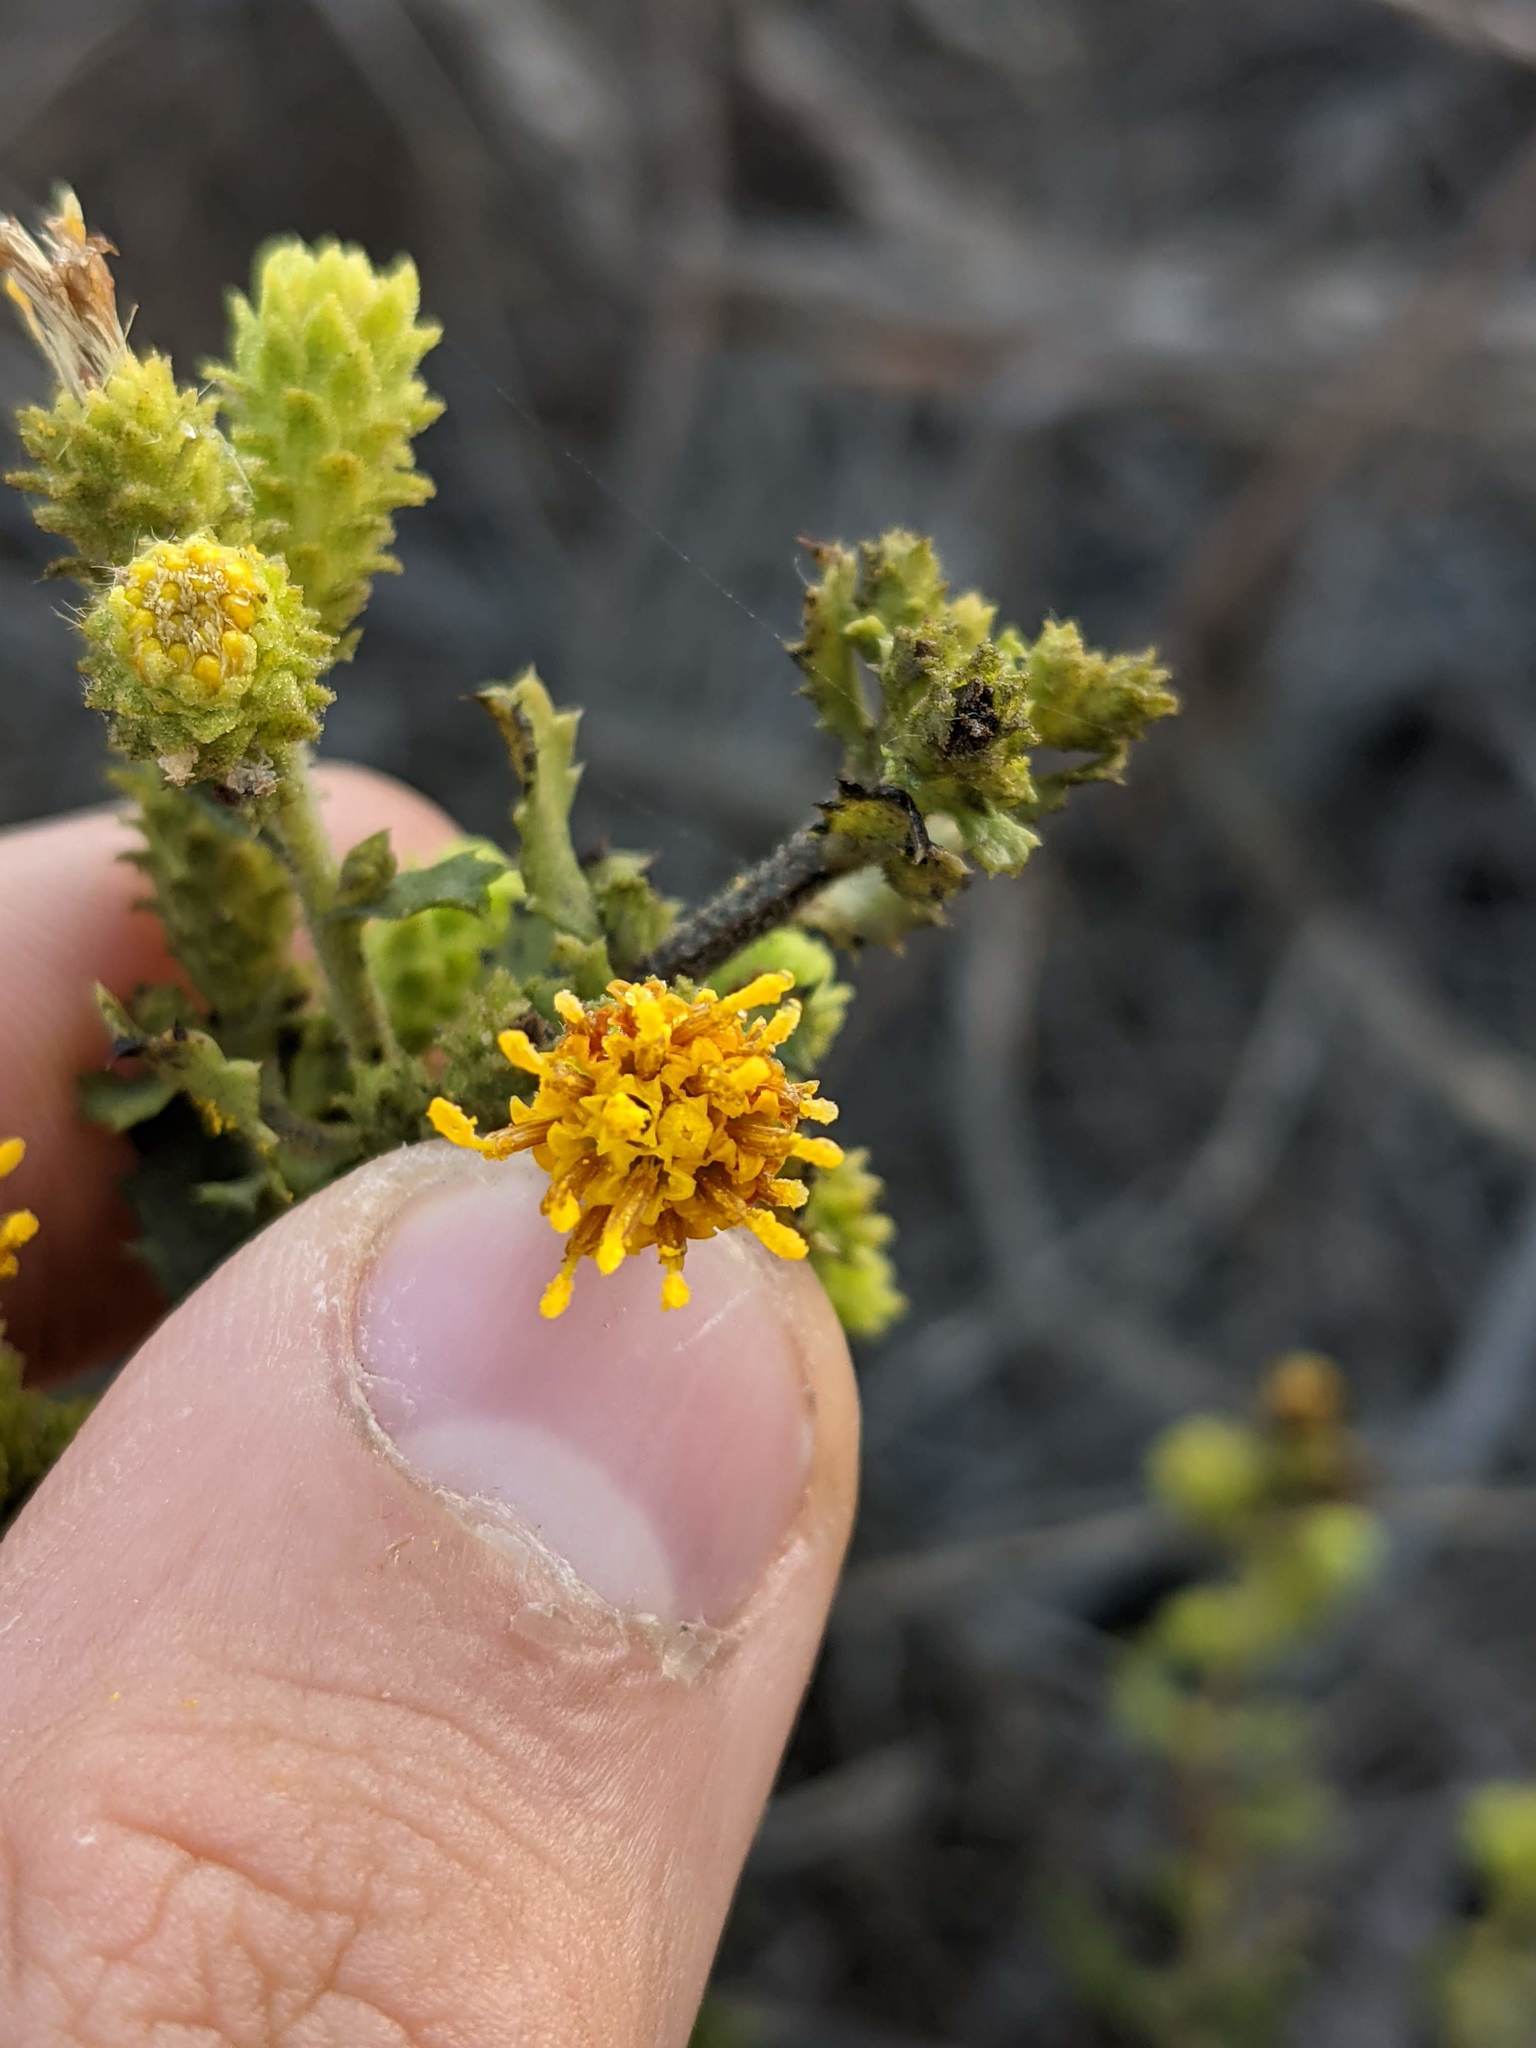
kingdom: Plantae
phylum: Tracheophyta
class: Magnoliopsida
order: Asterales
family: Asteraceae
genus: Hazardia
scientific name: Hazardia squarrosa
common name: Saw-tooth goldenbush
